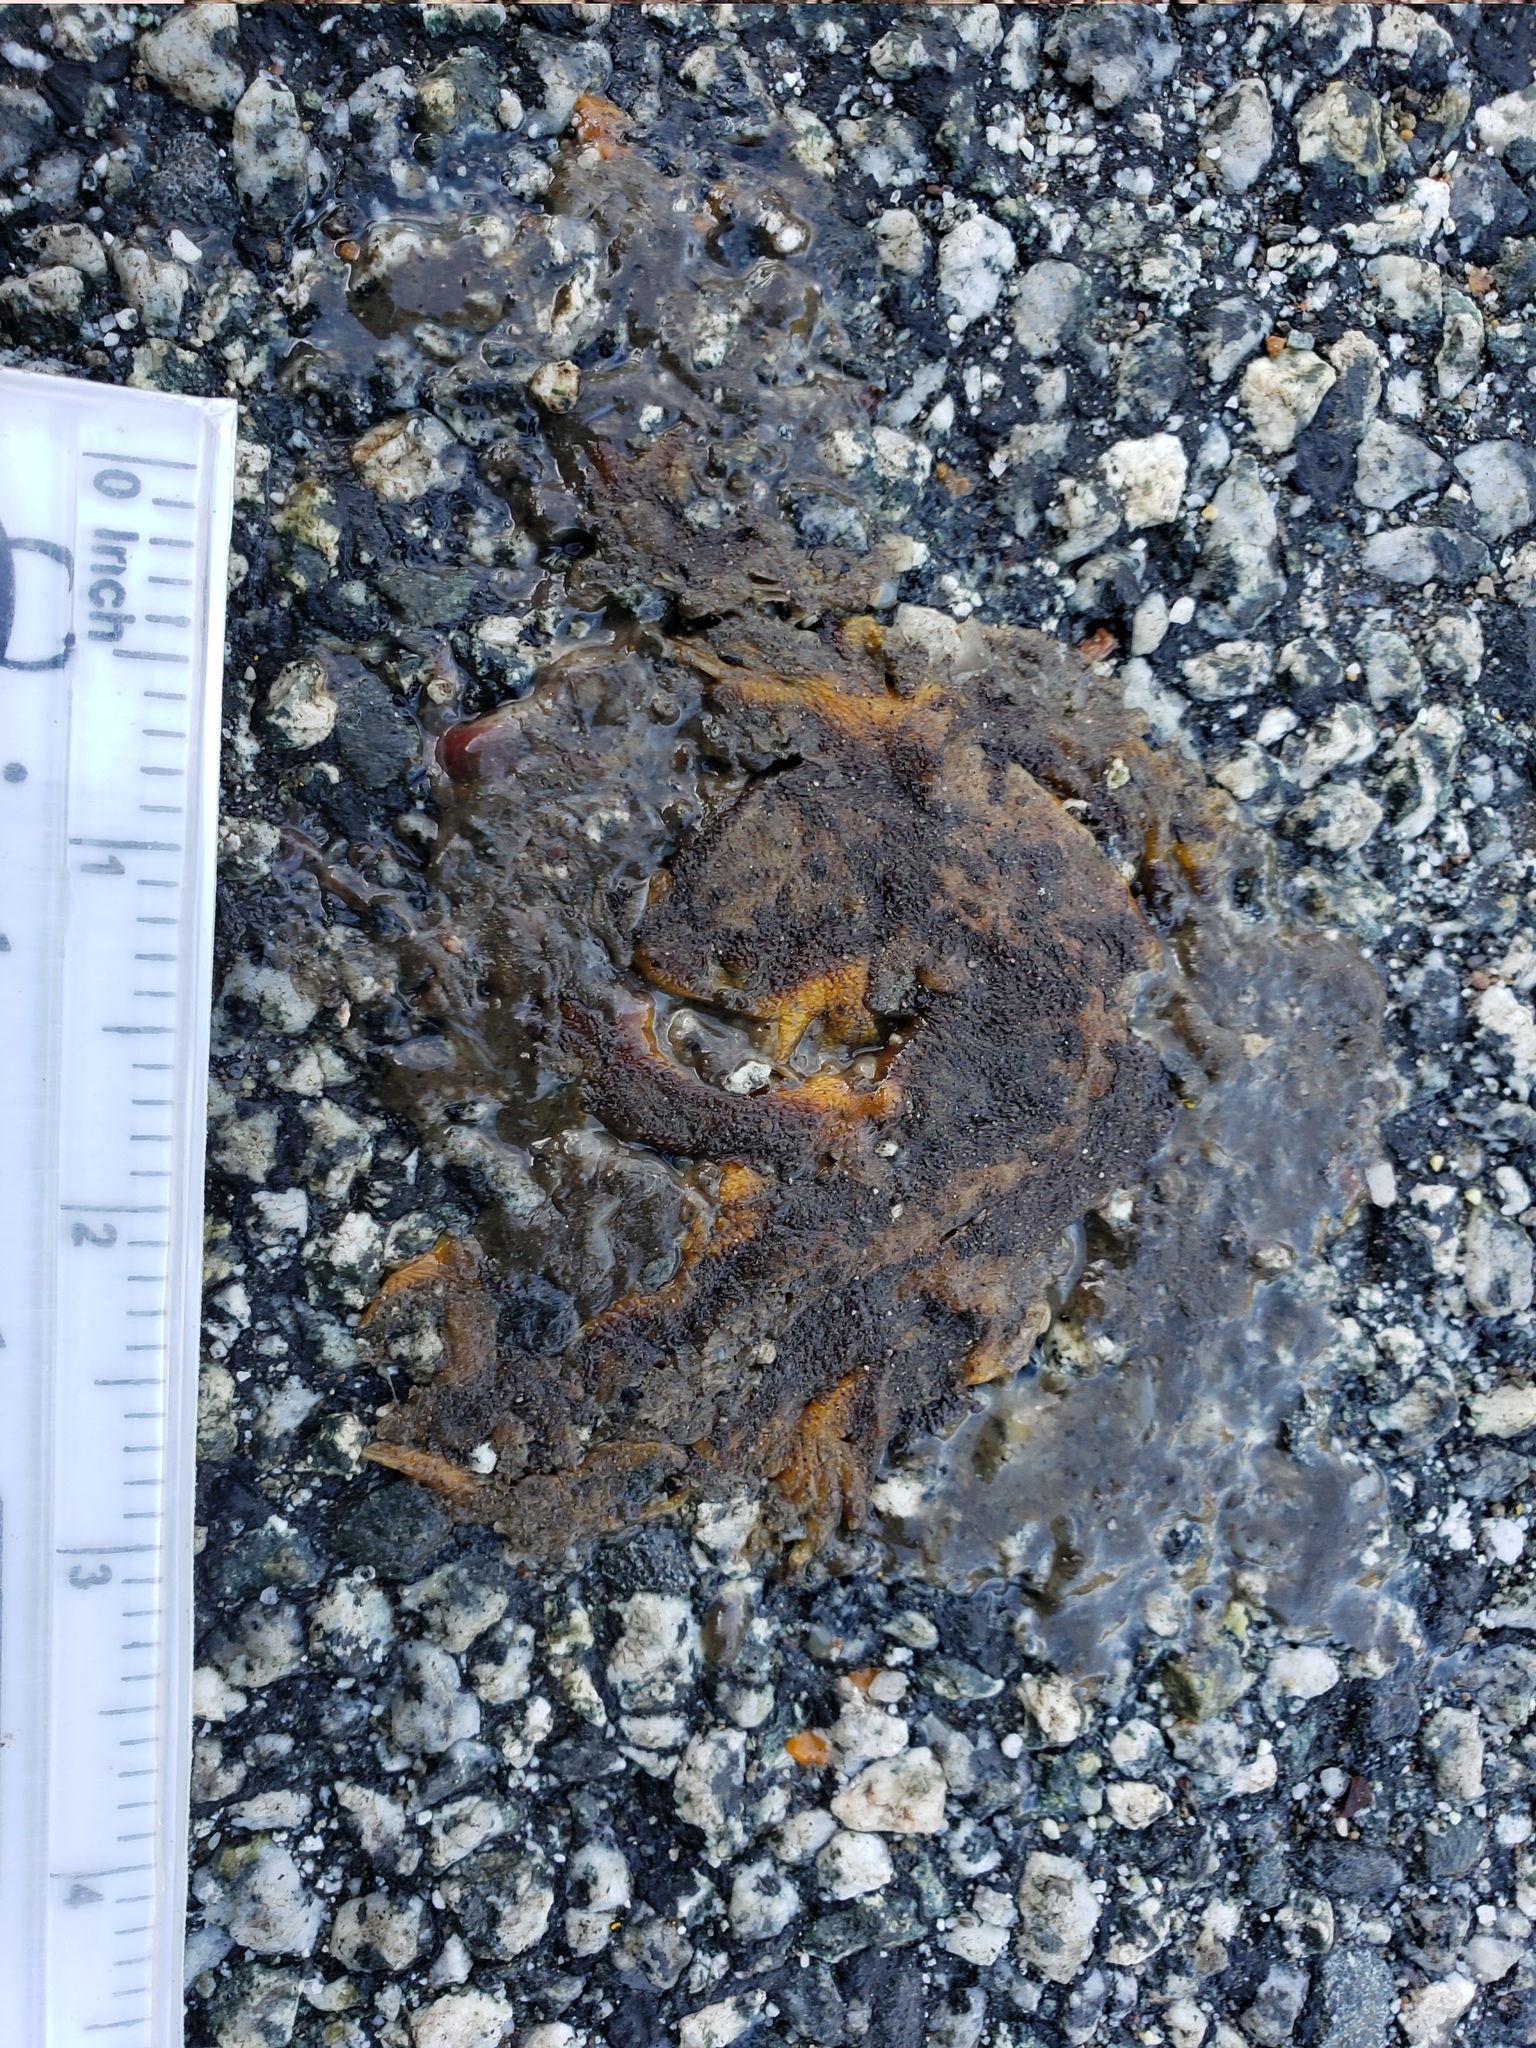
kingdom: Animalia
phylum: Chordata
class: Amphibia
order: Caudata
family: Salamandridae
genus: Taricha
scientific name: Taricha
